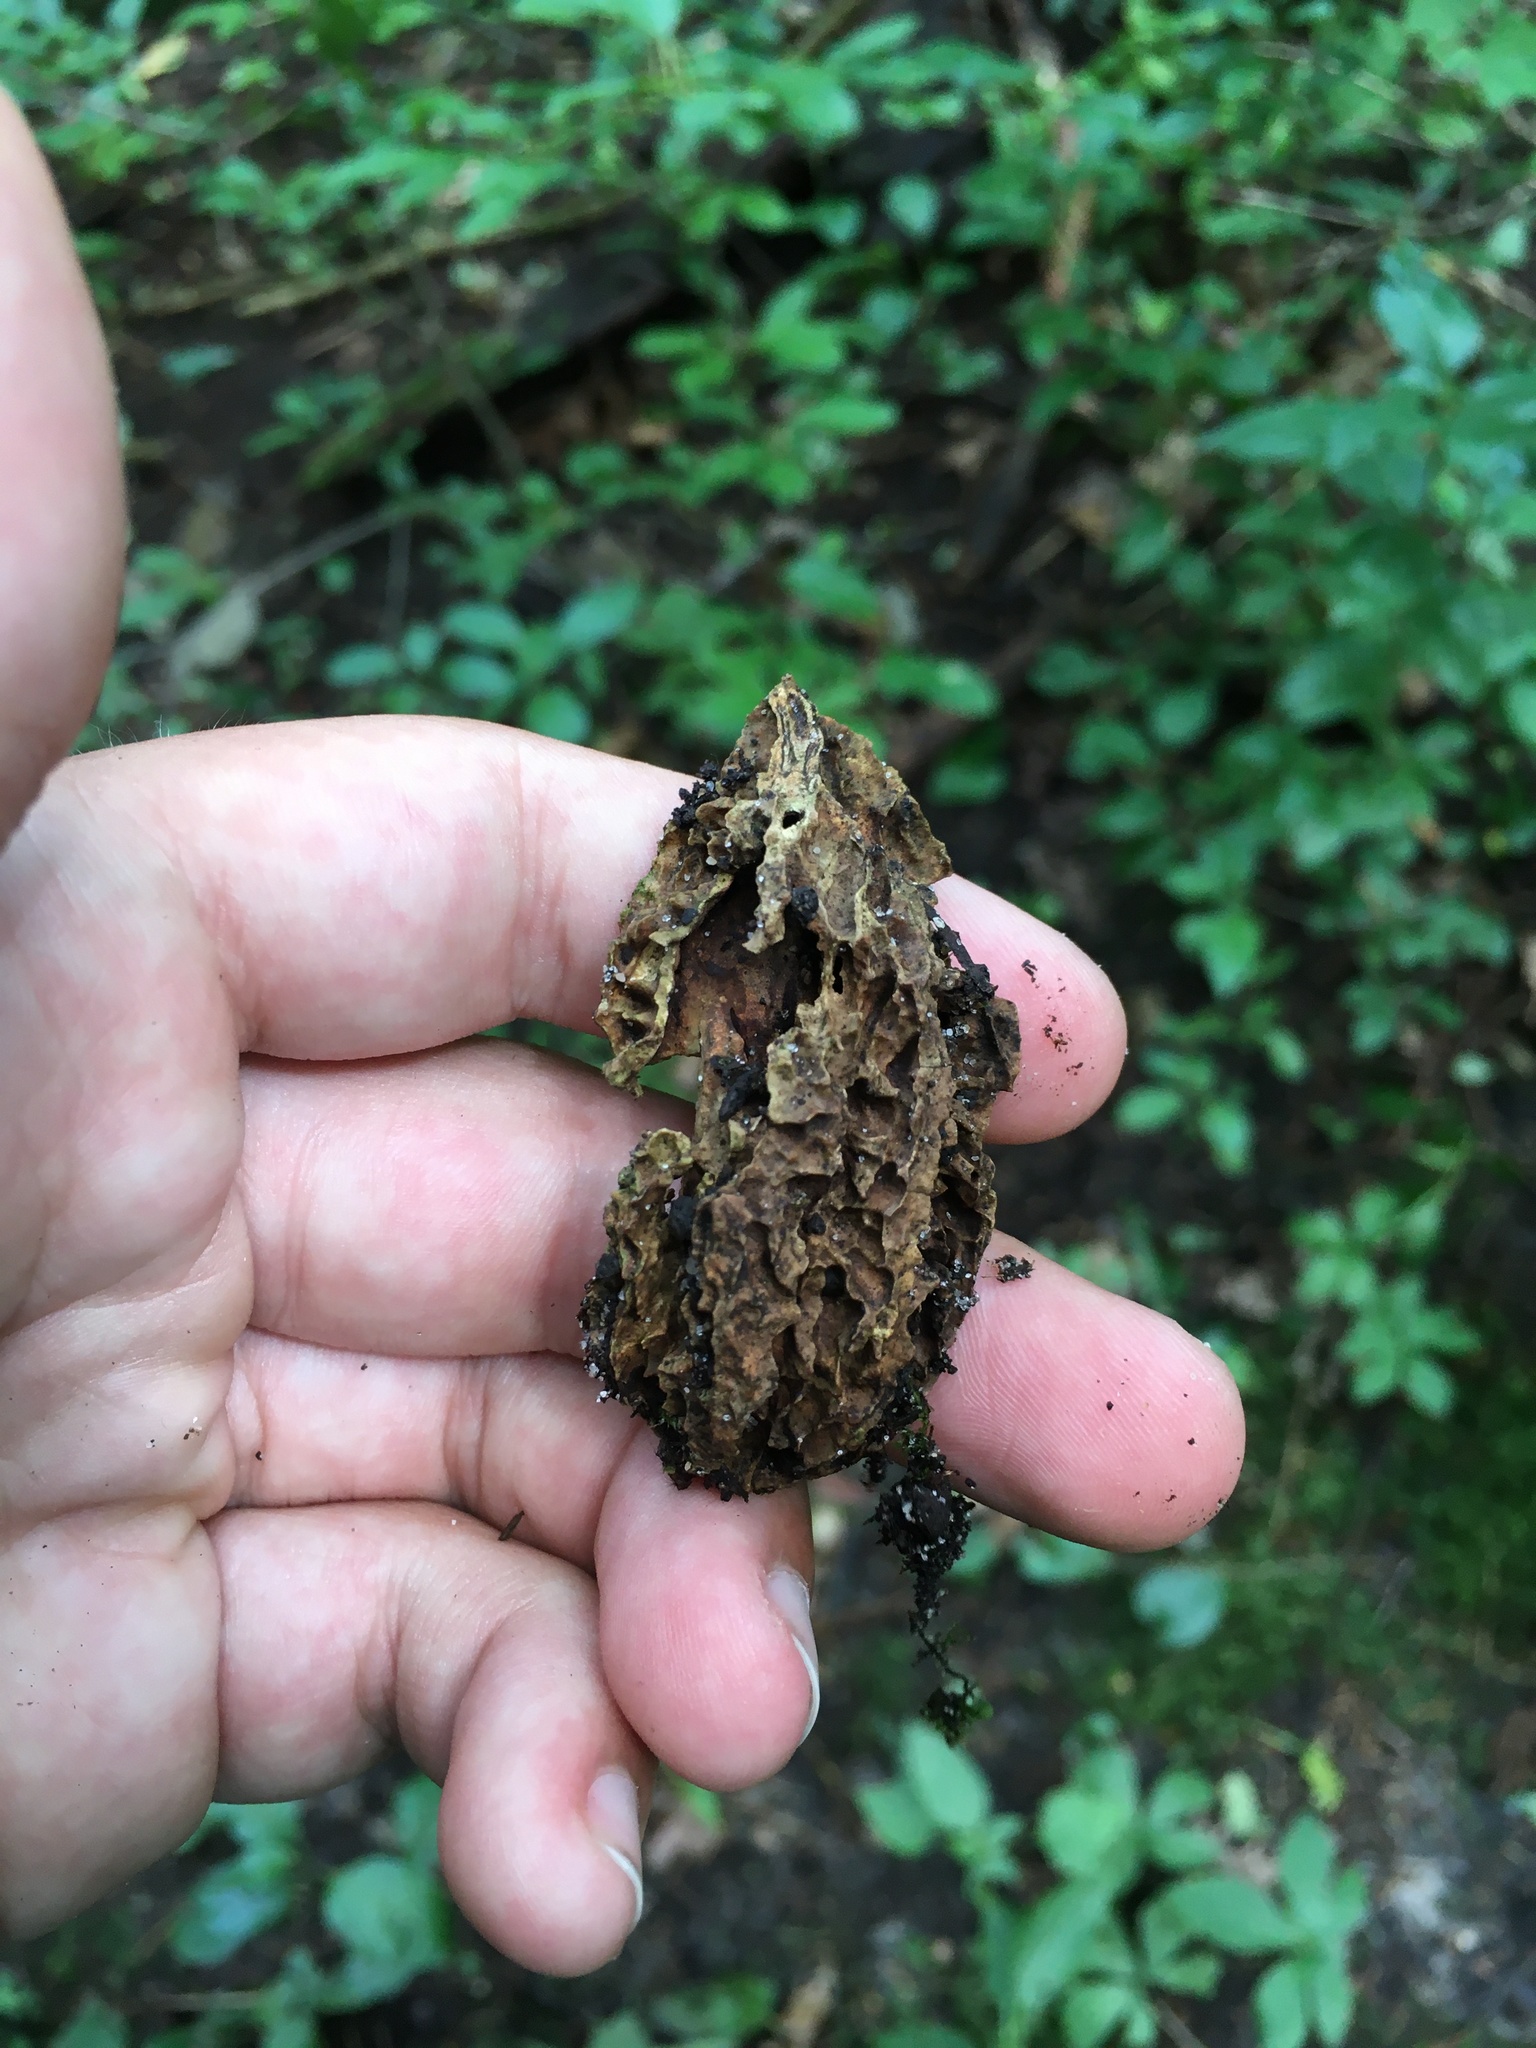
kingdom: Plantae
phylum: Tracheophyta
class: Magnoliopsida
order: Fagales
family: Juglandaceae
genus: Juglans
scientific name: Juglans cinerea
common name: Butternut
